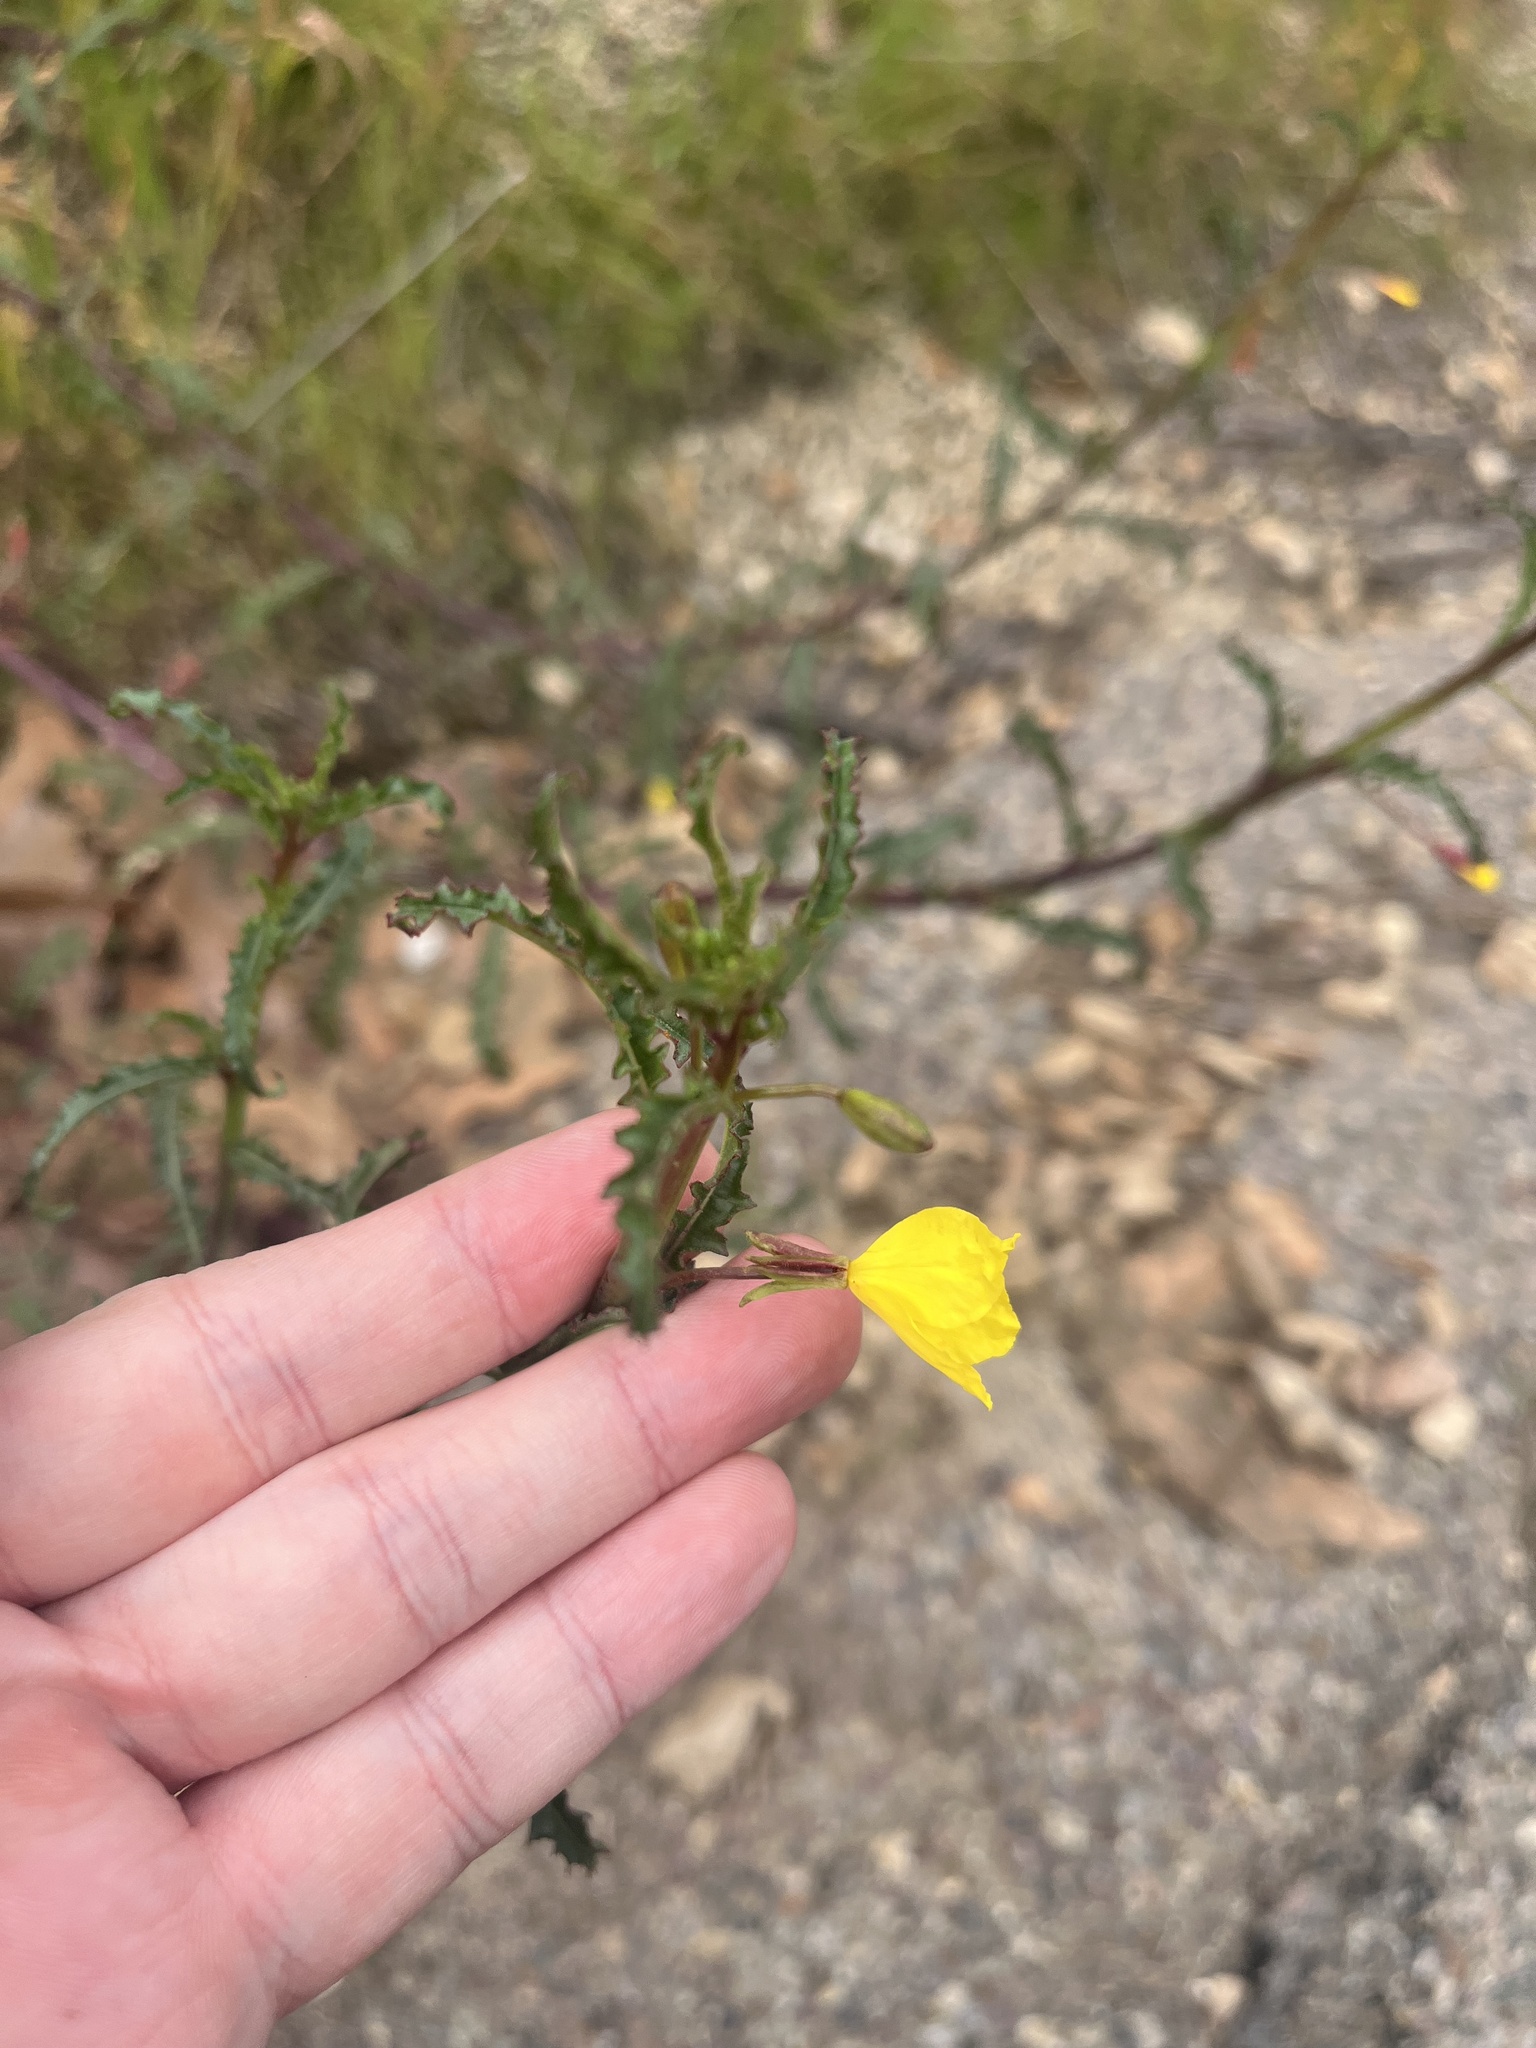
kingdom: Plantae
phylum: Tracheophyta
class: Magnoliopsida
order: Myrtales
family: Onagraceae
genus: Eulobus
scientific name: Eulobus californicus
